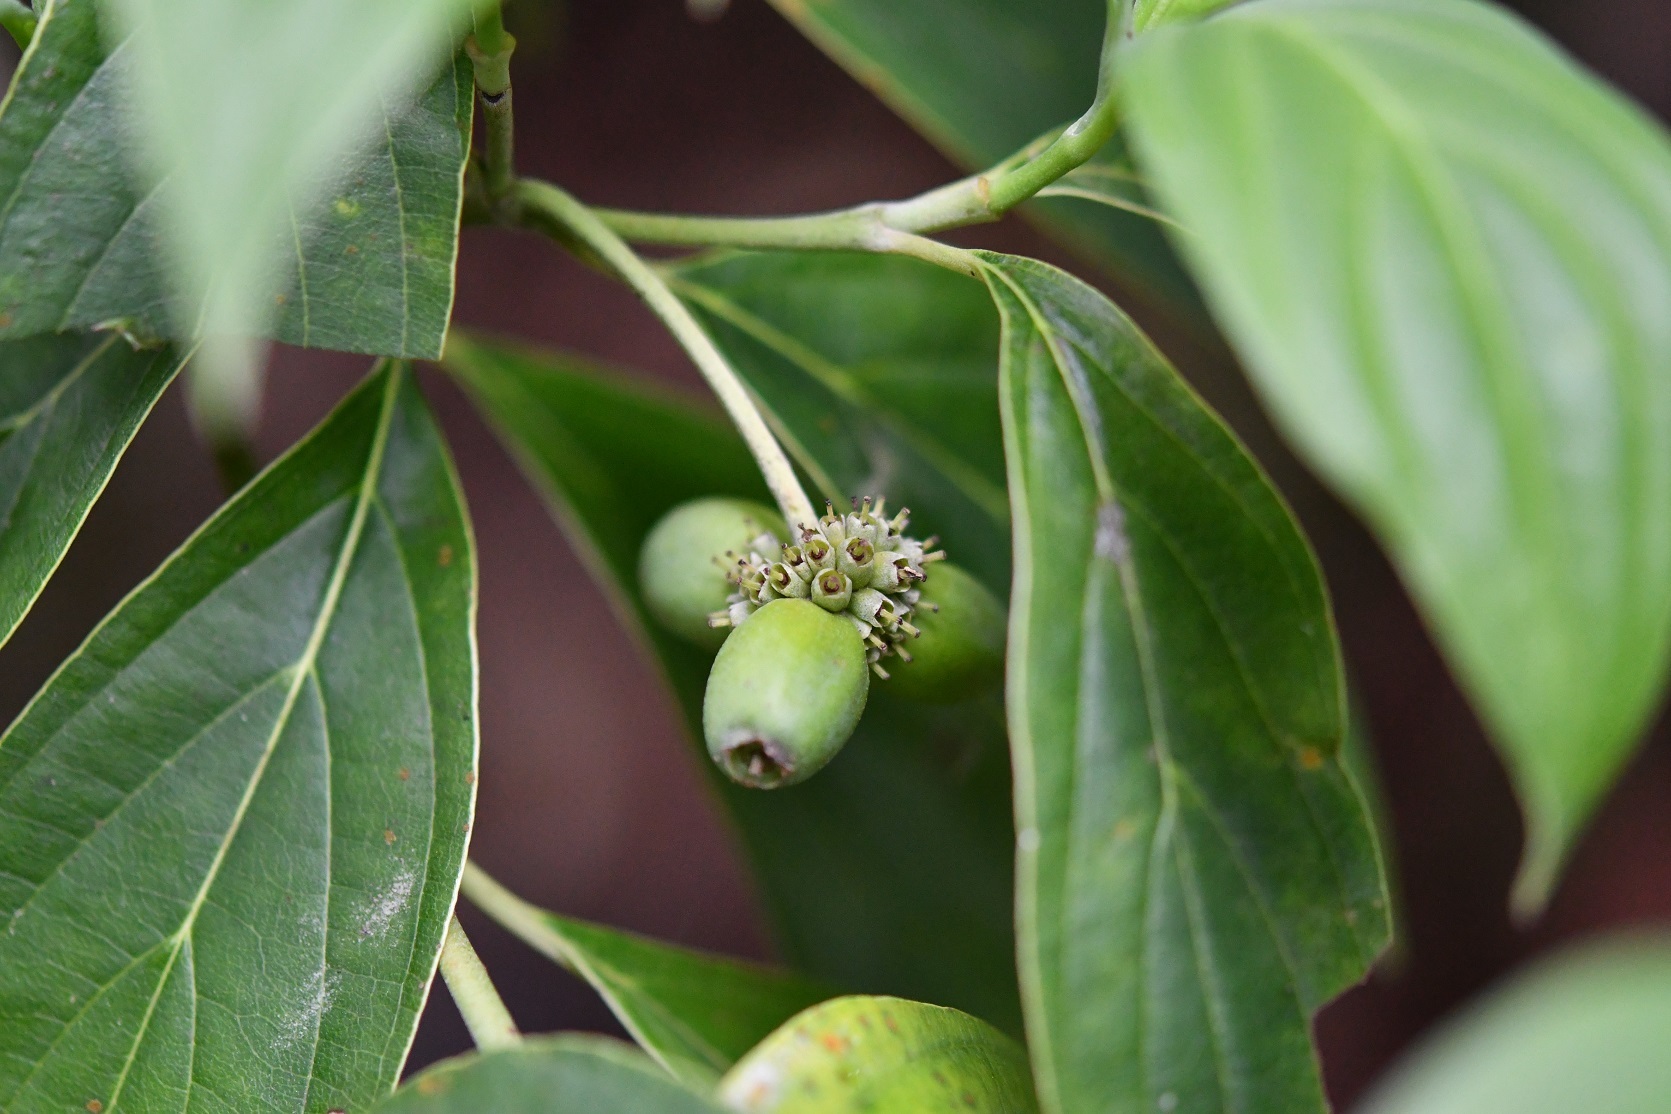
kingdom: Plantae
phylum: Tracheophyta
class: Magnoliopsida
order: Cornales
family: Cornaceae
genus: Cornus
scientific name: Cornus disciflora
